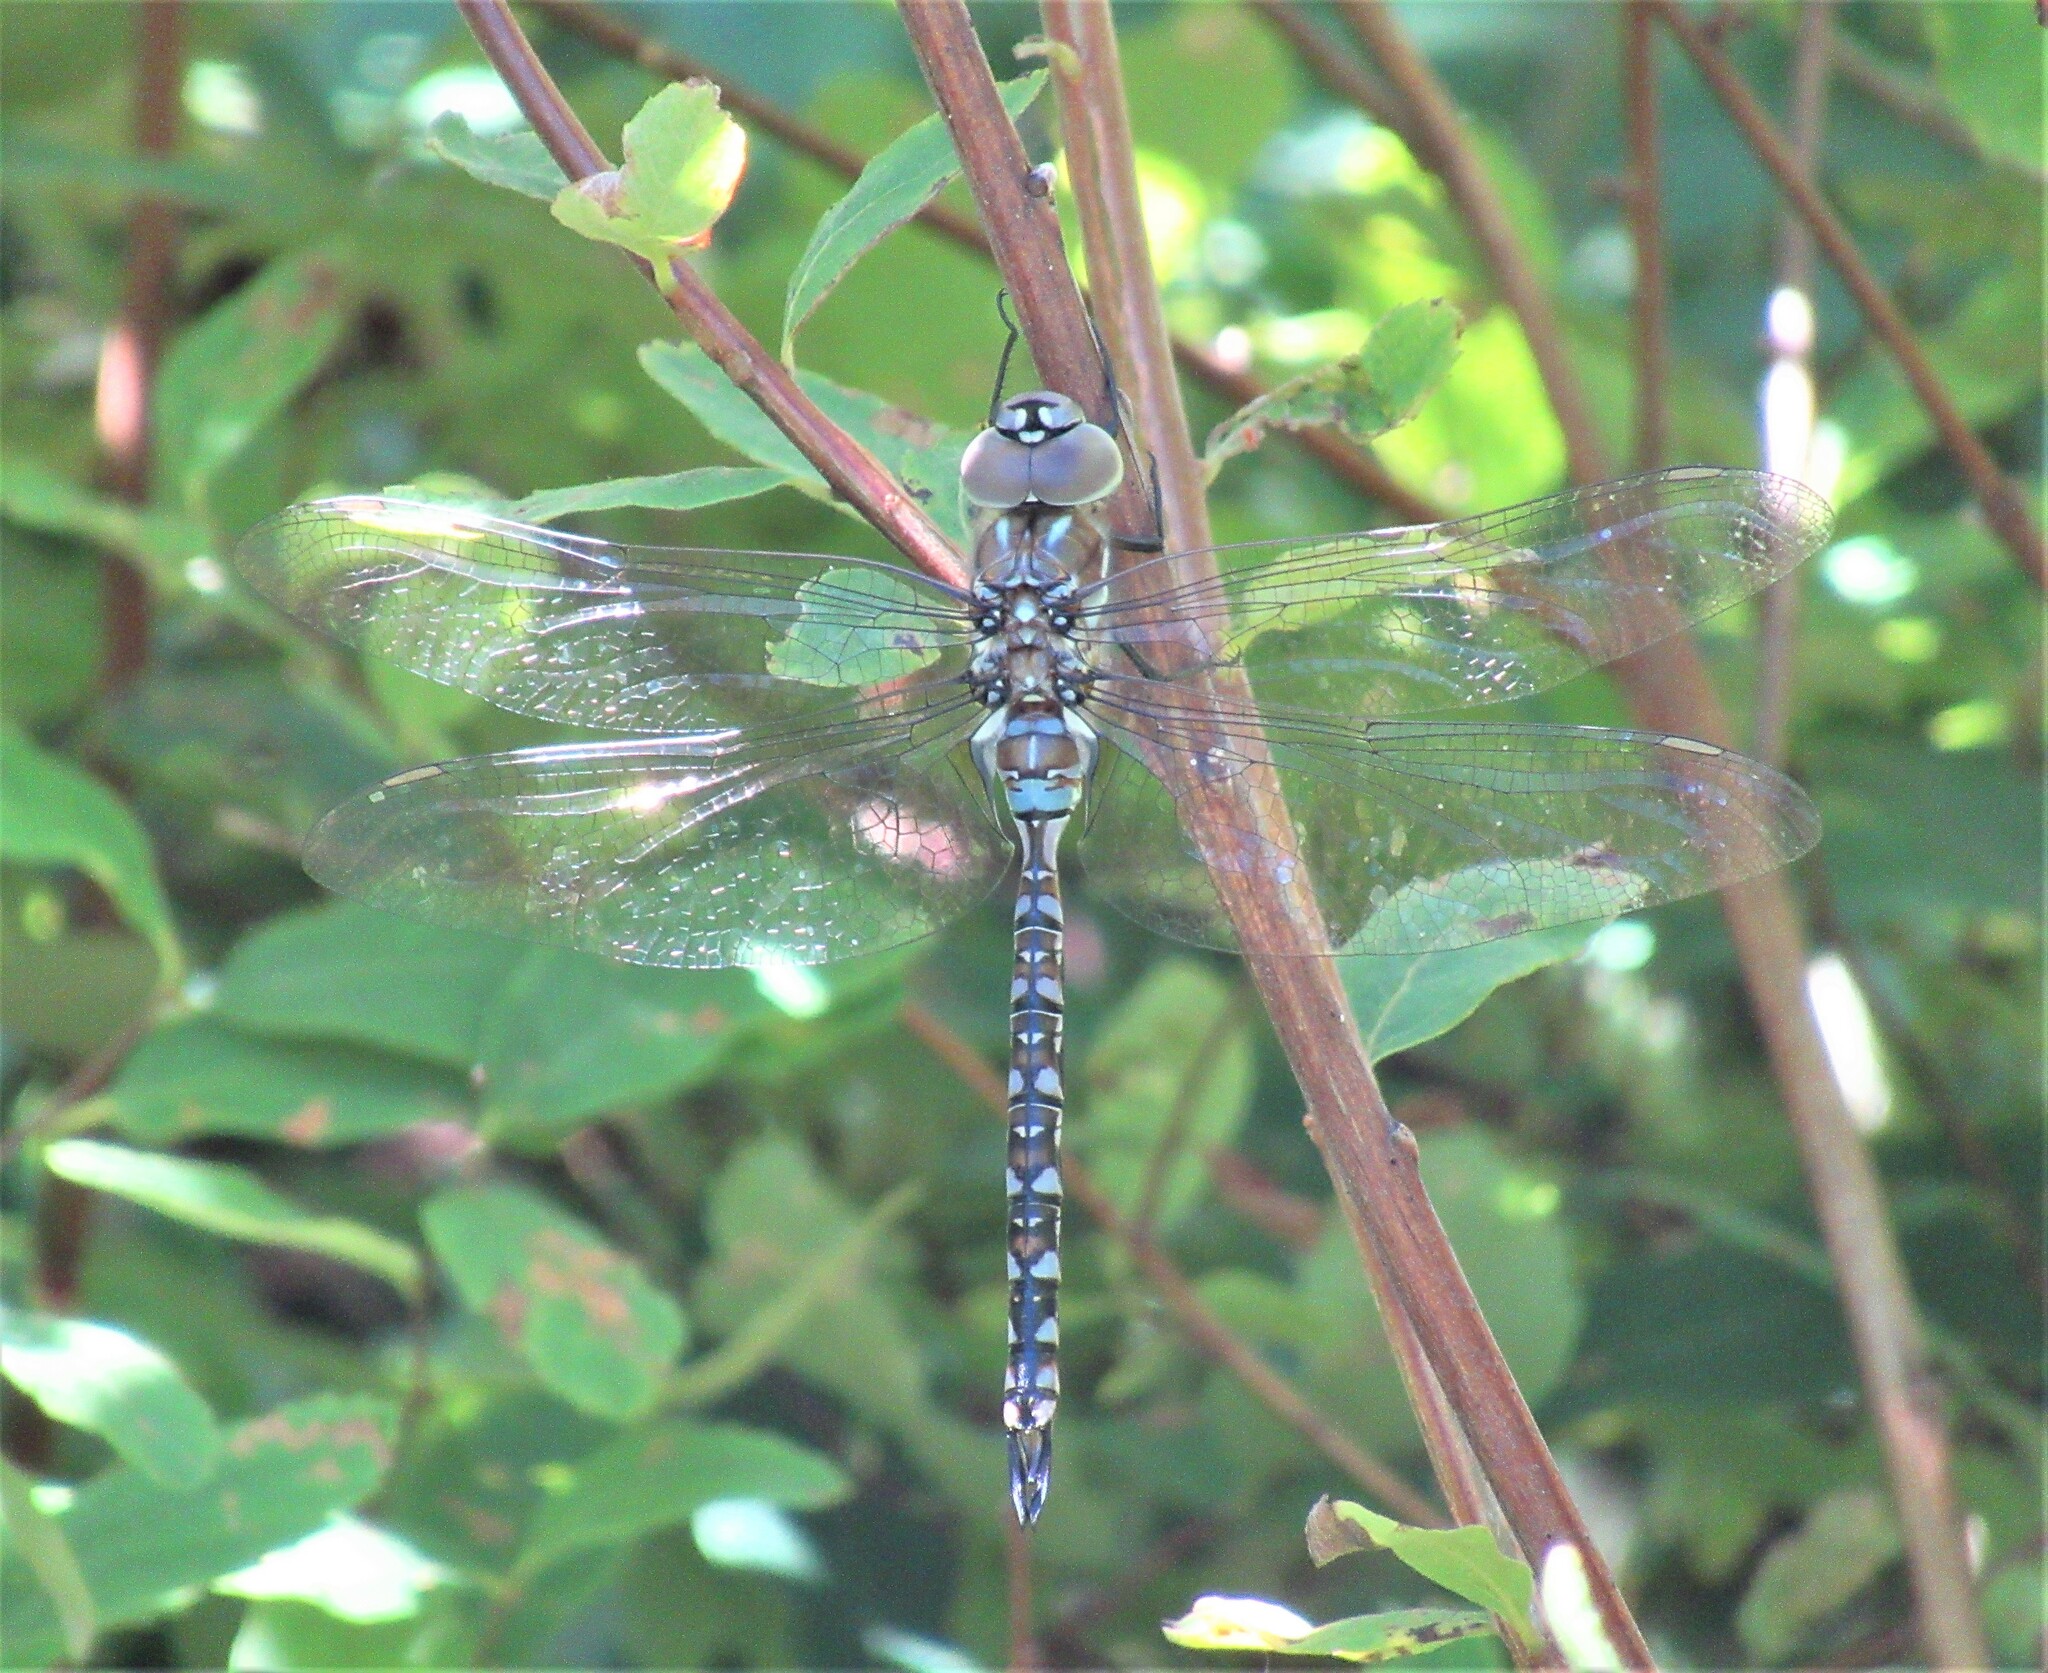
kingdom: Animalia
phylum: Arthropoda
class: Insecta
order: Odonata
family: Aeshnidae
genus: Rhionaeschna
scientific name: Rhionaeschna multicolor
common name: Blue-eyed darner
